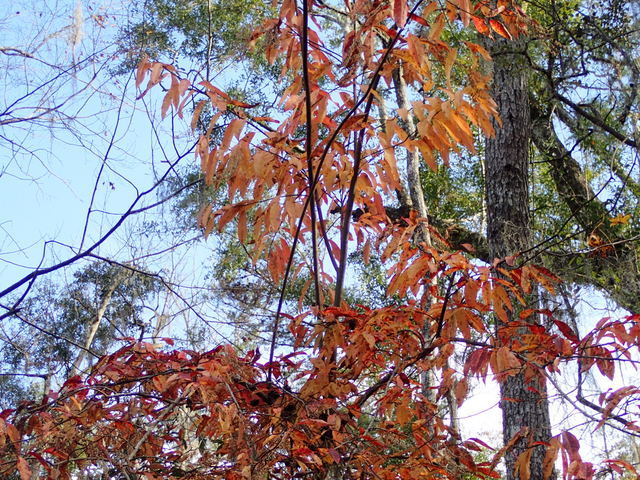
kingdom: Plantae
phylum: Tracheophyta
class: Magnoliopsida
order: Ericales
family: Ericaceae
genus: Oxydendrum
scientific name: Oxydendrum arboreum
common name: Sourwood
